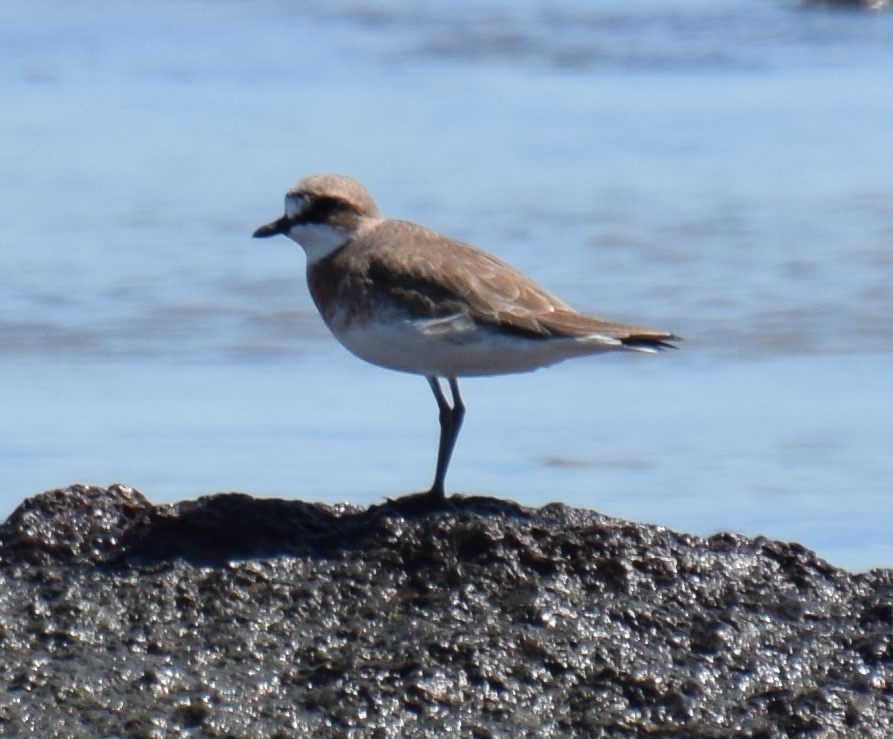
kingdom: Animalia
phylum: Chordata
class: Aves
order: Charadriiformes
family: Charadriidae
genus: Anarhynchus
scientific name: Anarhynchus
